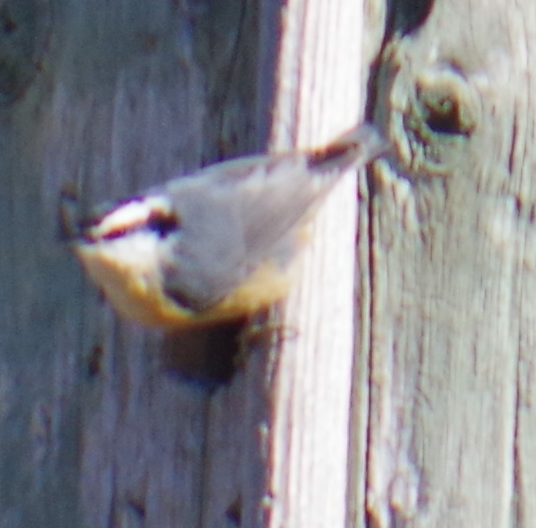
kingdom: Animalia
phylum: Chordata
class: Aves
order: Passeriformes
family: Sittidae
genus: Sitta
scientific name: Sitta canadensis
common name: Red-breasted nuthatch
